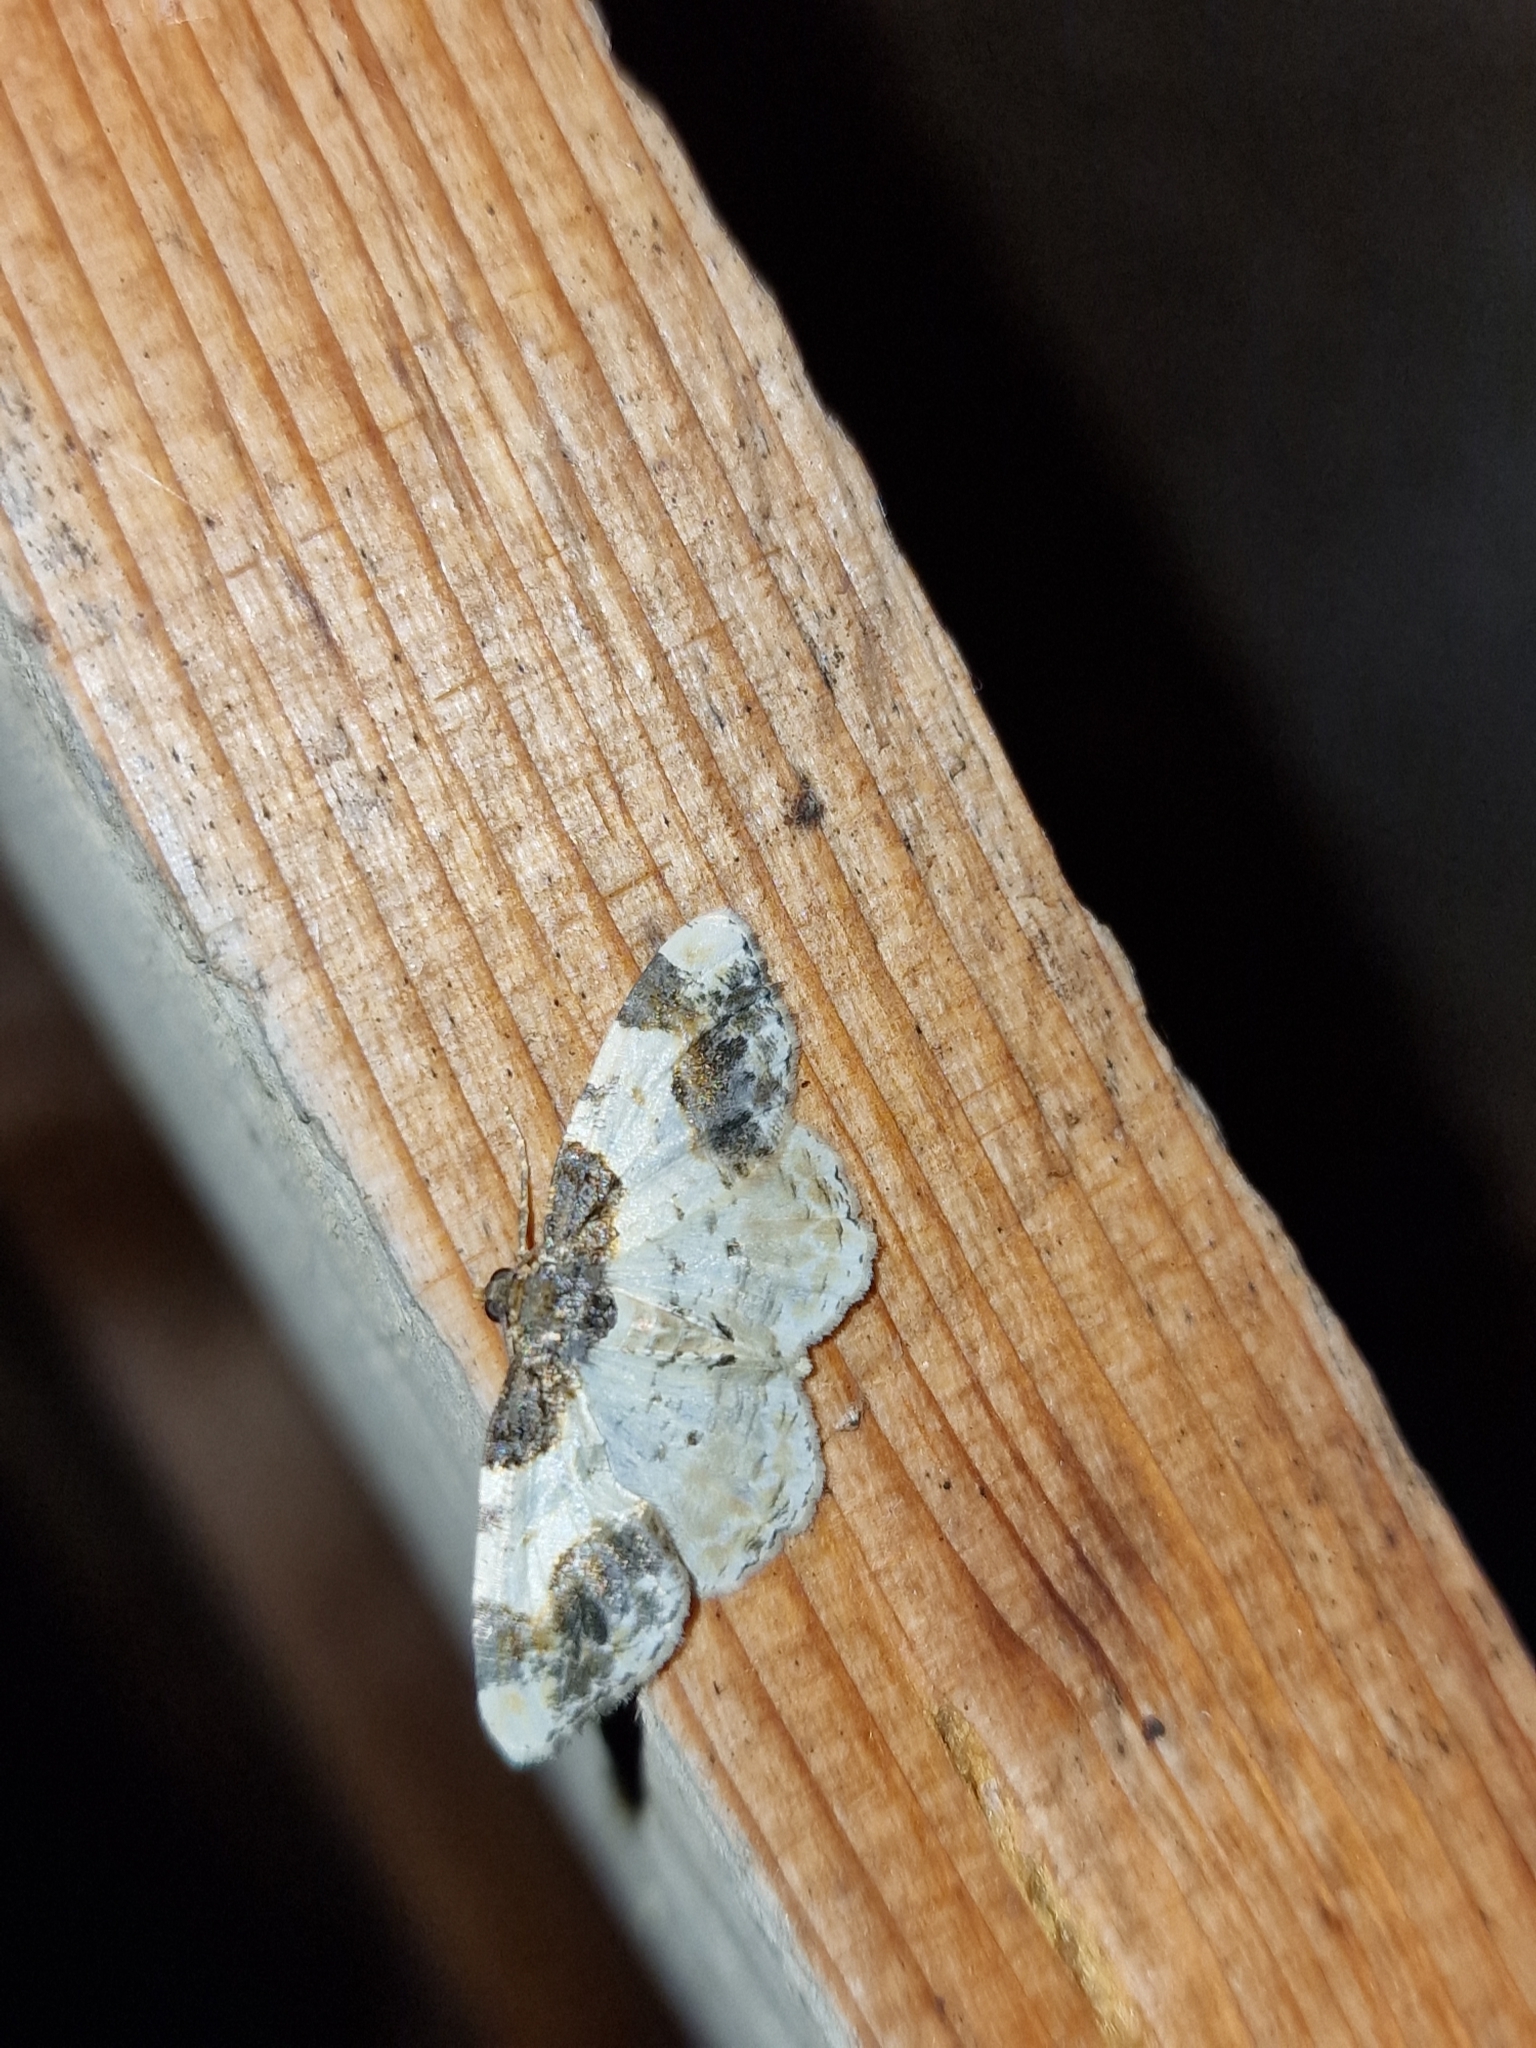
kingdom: Animalia
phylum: Arthropoda
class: Insecta
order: Lepidoptera
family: Geometridae
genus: Ligdia
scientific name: Ligdia adustata
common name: Scorched carpet
